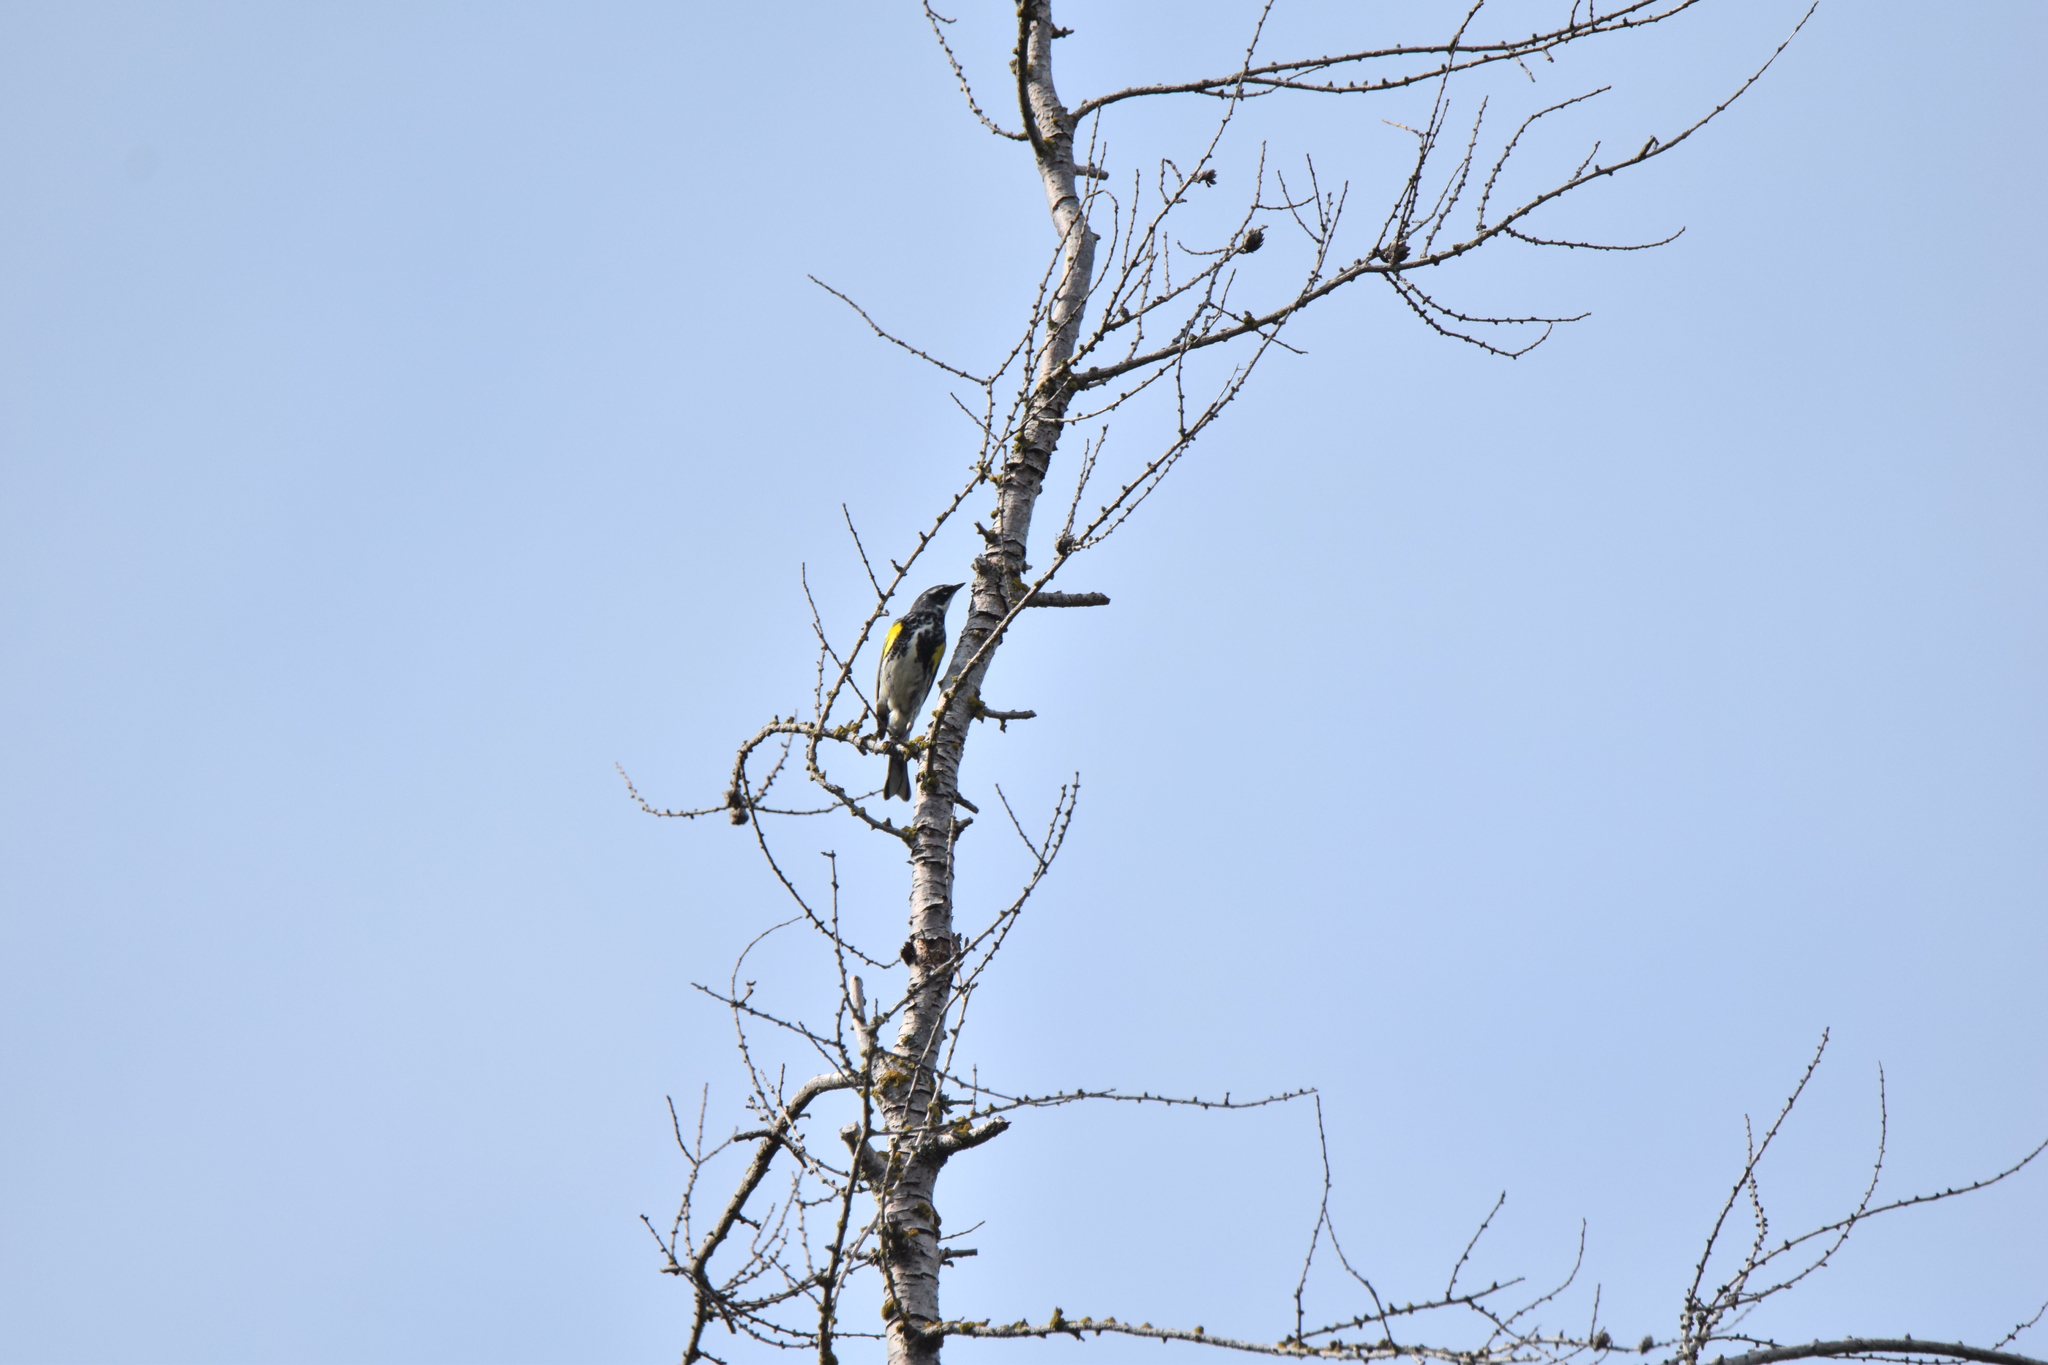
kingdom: Animalia
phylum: Chordata
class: Aves
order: Passeriformes
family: Parulidae
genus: Setophaga
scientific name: Setophaga coronata
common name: Myrtle warbler
